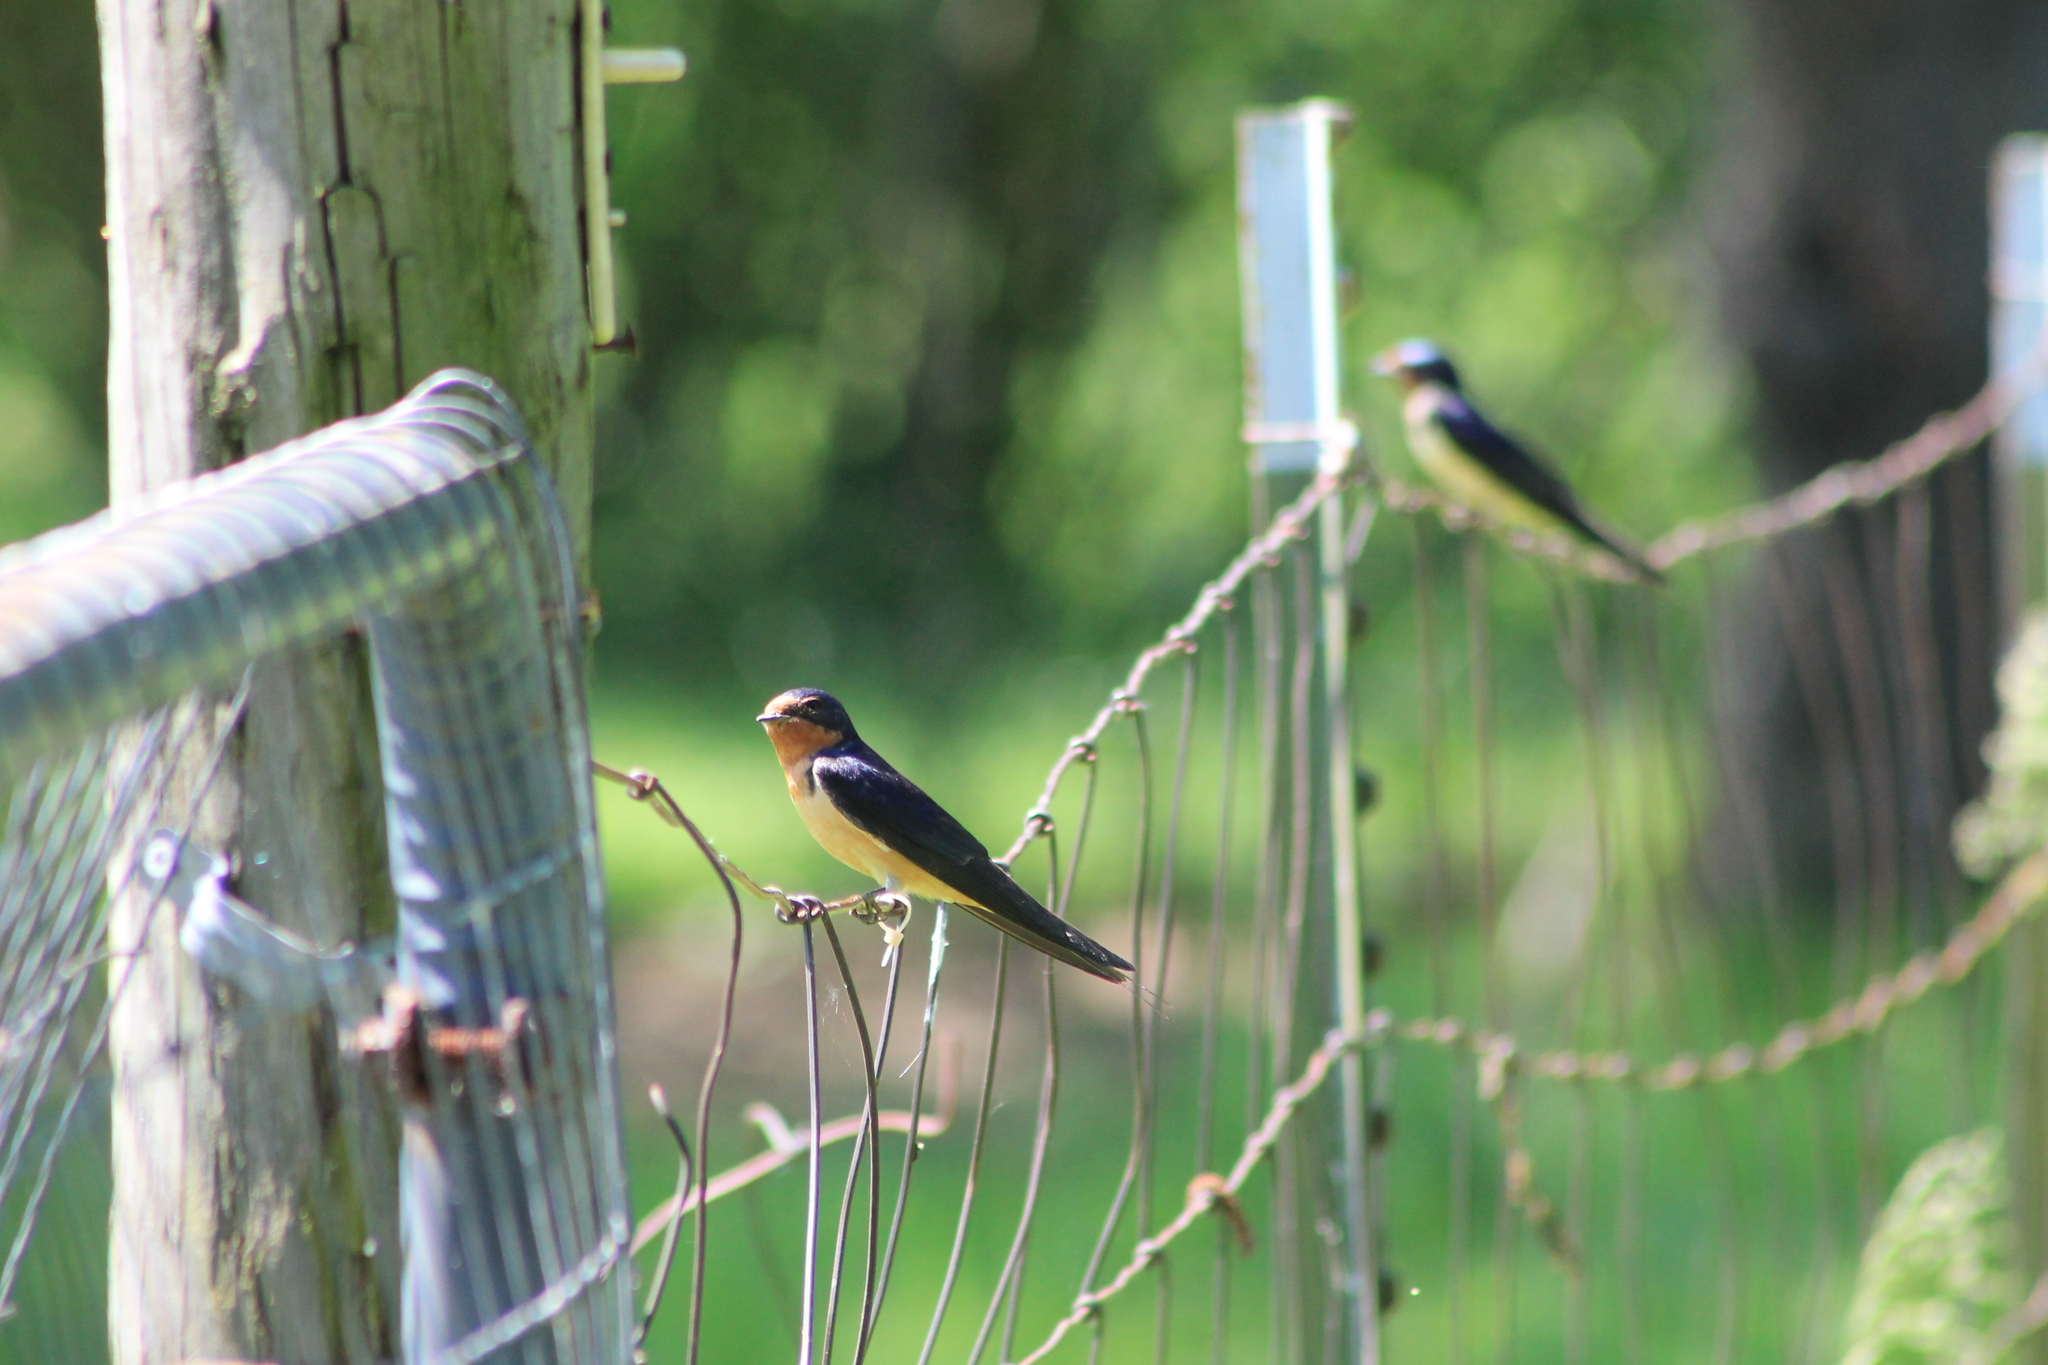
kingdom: Animalia
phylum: Chordata
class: Aves
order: Passeriformes
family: Hirundinidae
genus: Hirundo
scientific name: Hirundo rustica
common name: Barn swallow
